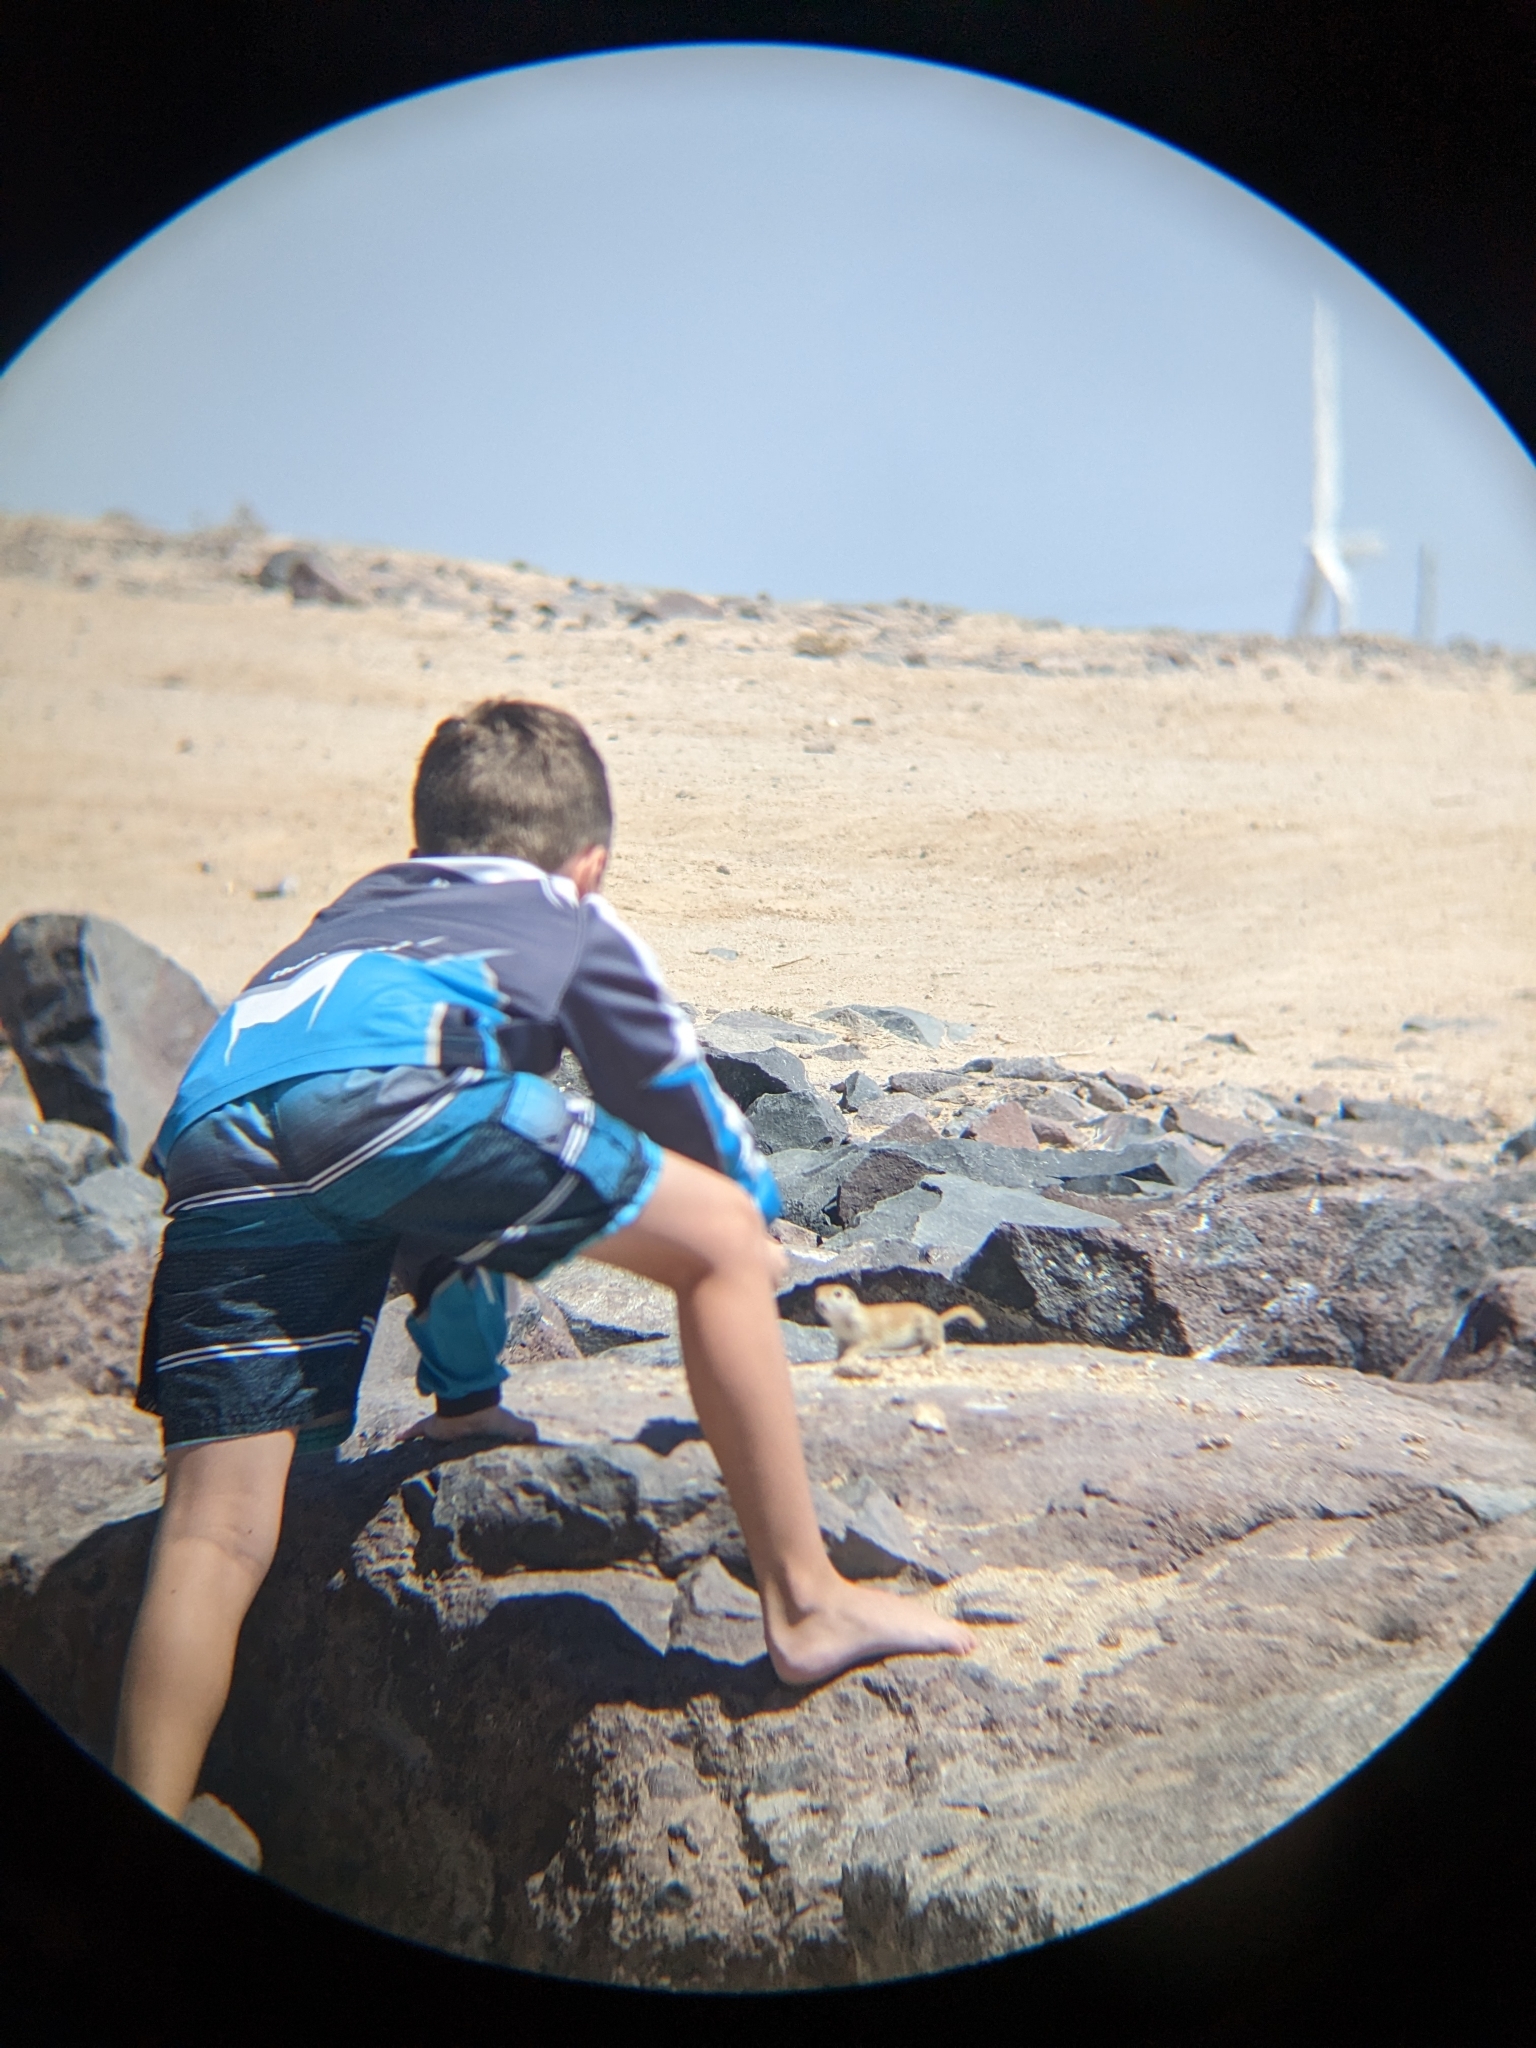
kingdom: Animalia
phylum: Chordata
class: Mammalia
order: Rodentia
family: Sciuridae
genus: Xerospermophilus
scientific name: Xerospermophilus tereticaudus
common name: Round-tailed ground squirrel
